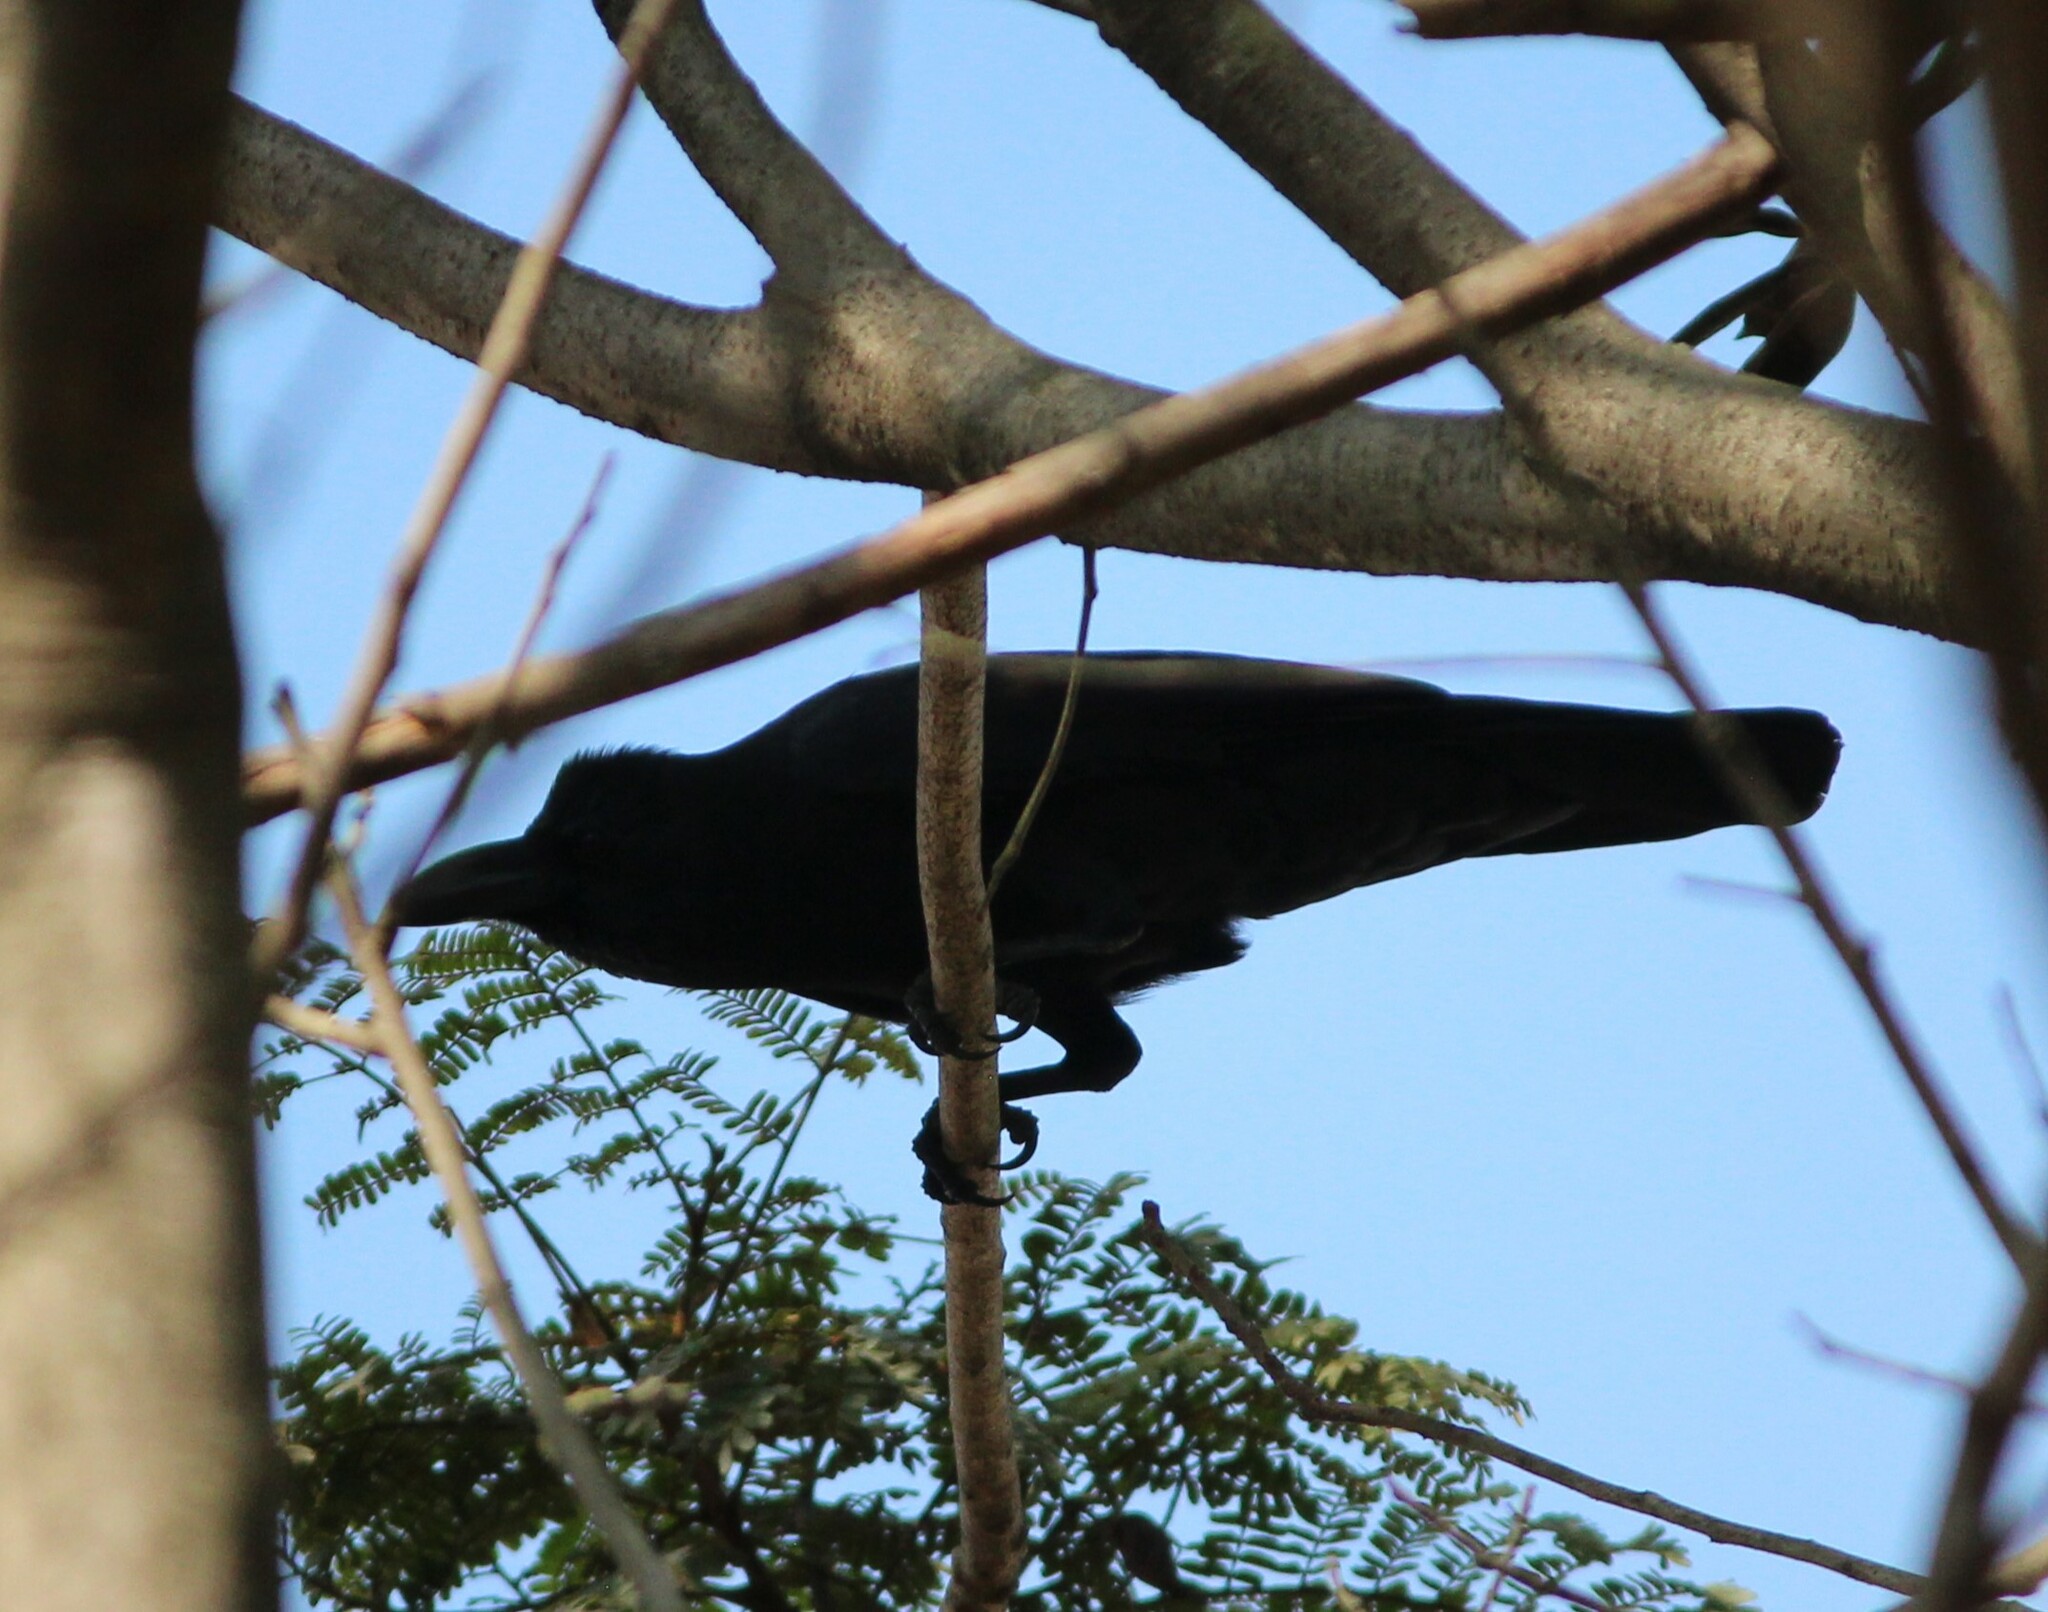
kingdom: Animalia
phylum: Chordata
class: Aves
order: Passeriformes
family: Corvidae
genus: Corvus
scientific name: Corvus macrorhynchos
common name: Large-billed crow
